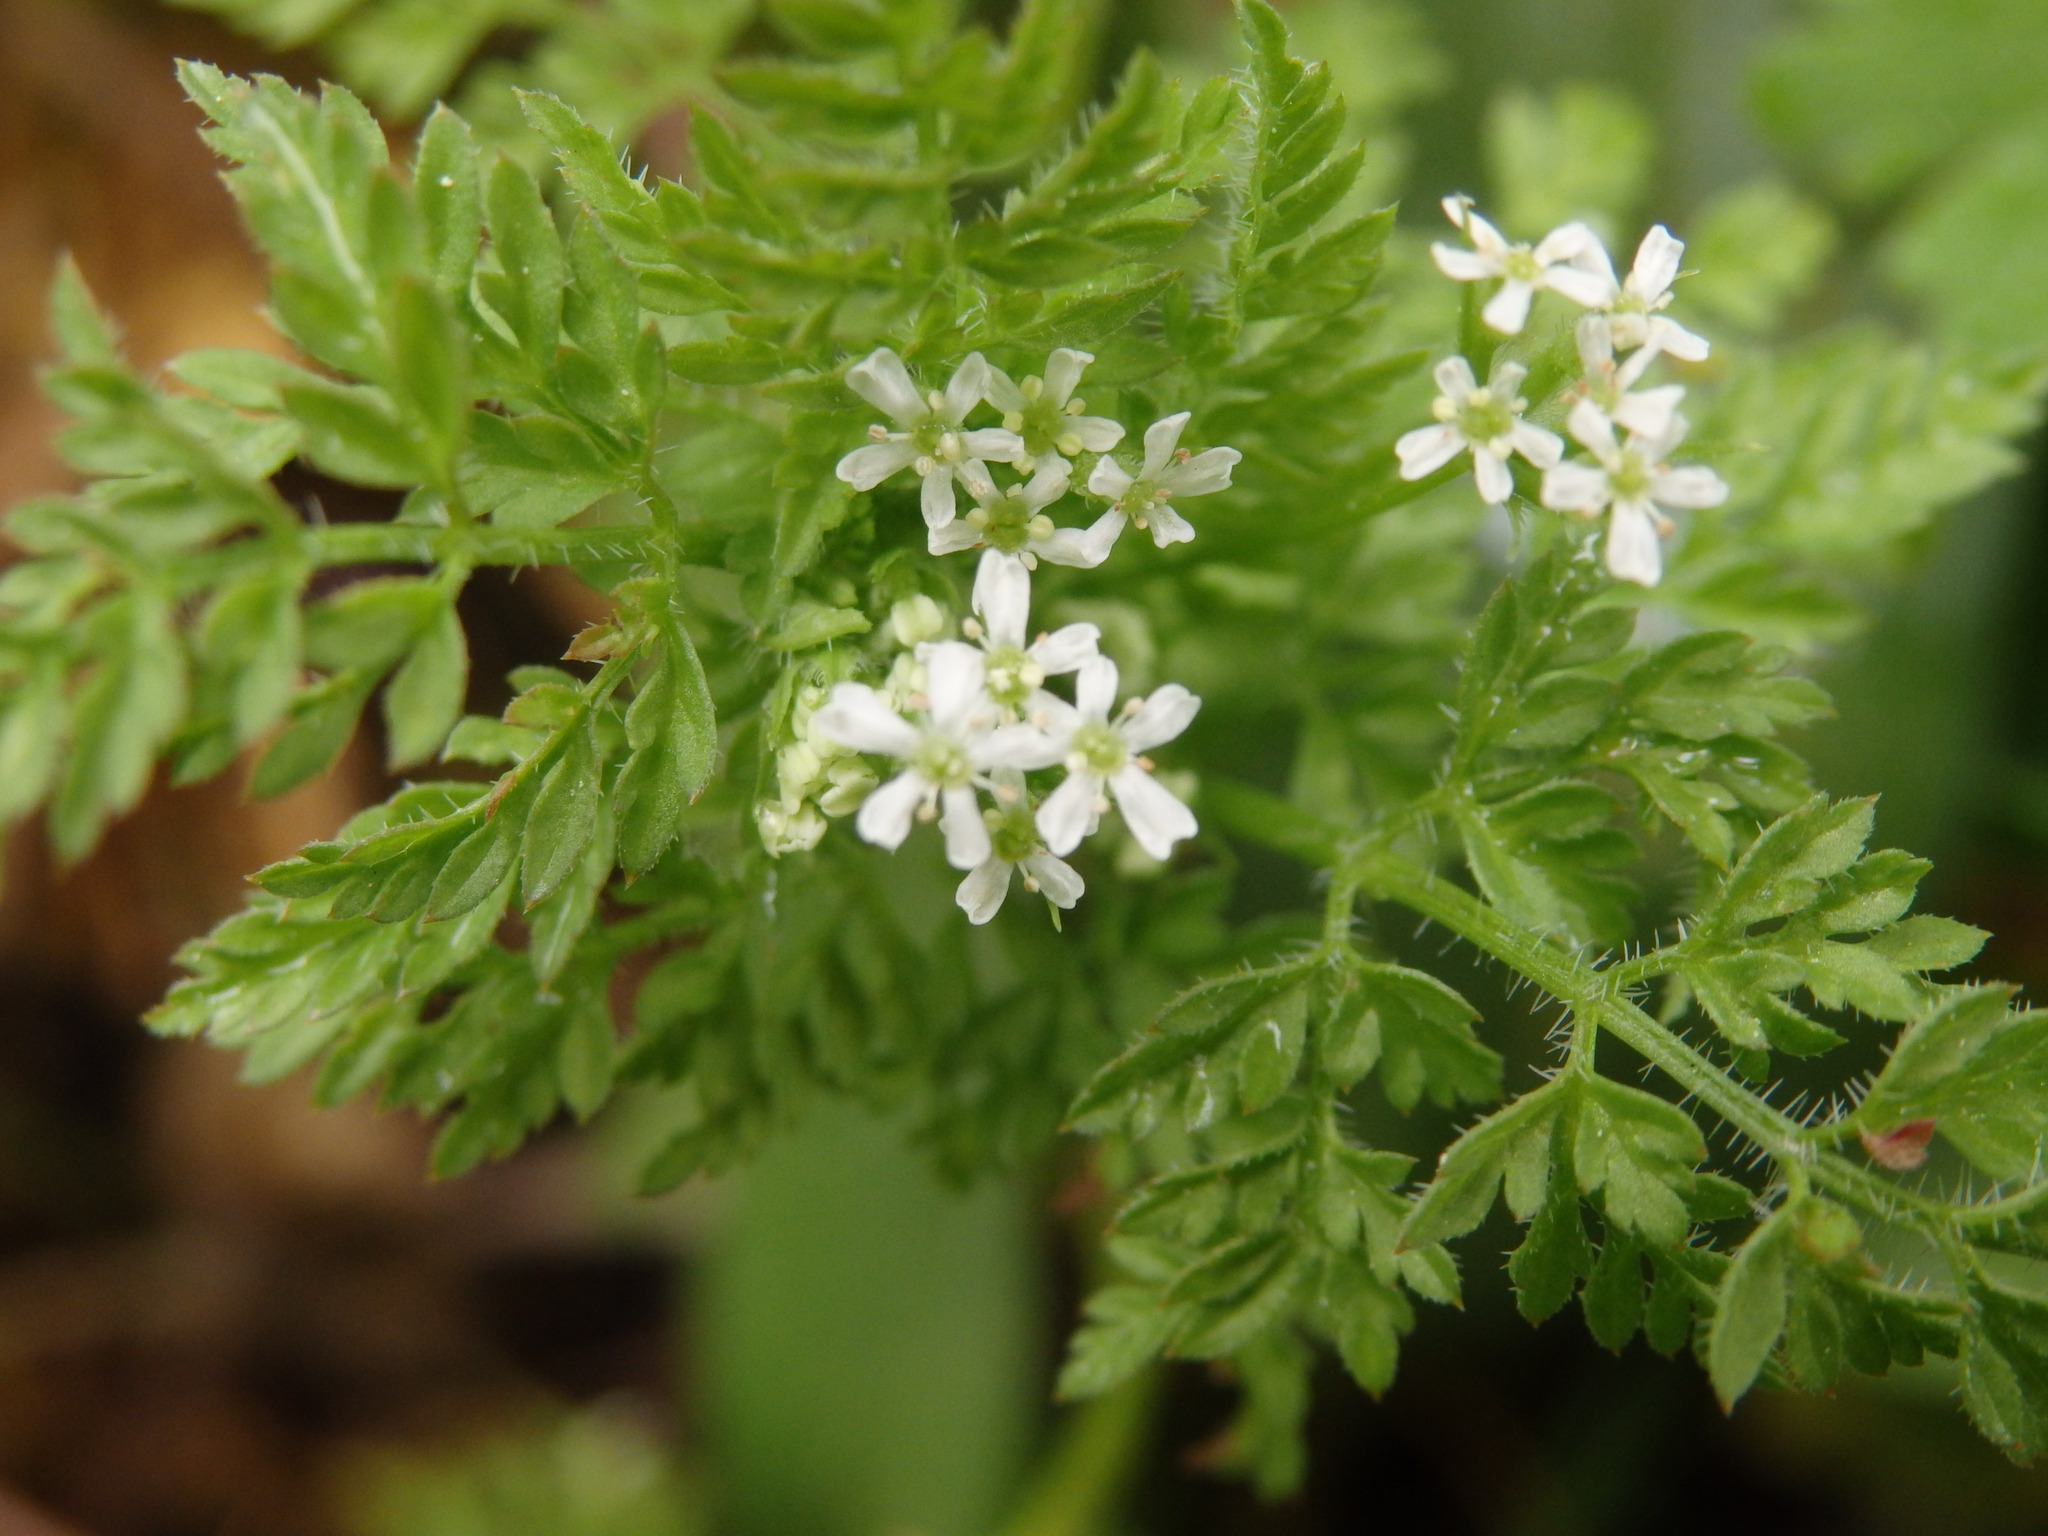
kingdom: Plantae
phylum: Tracheophyta
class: Magnoliopsida
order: Apiales
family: Apiaceae
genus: Anthriscus
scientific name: Anthriscus caucalis
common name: Bur chervil
